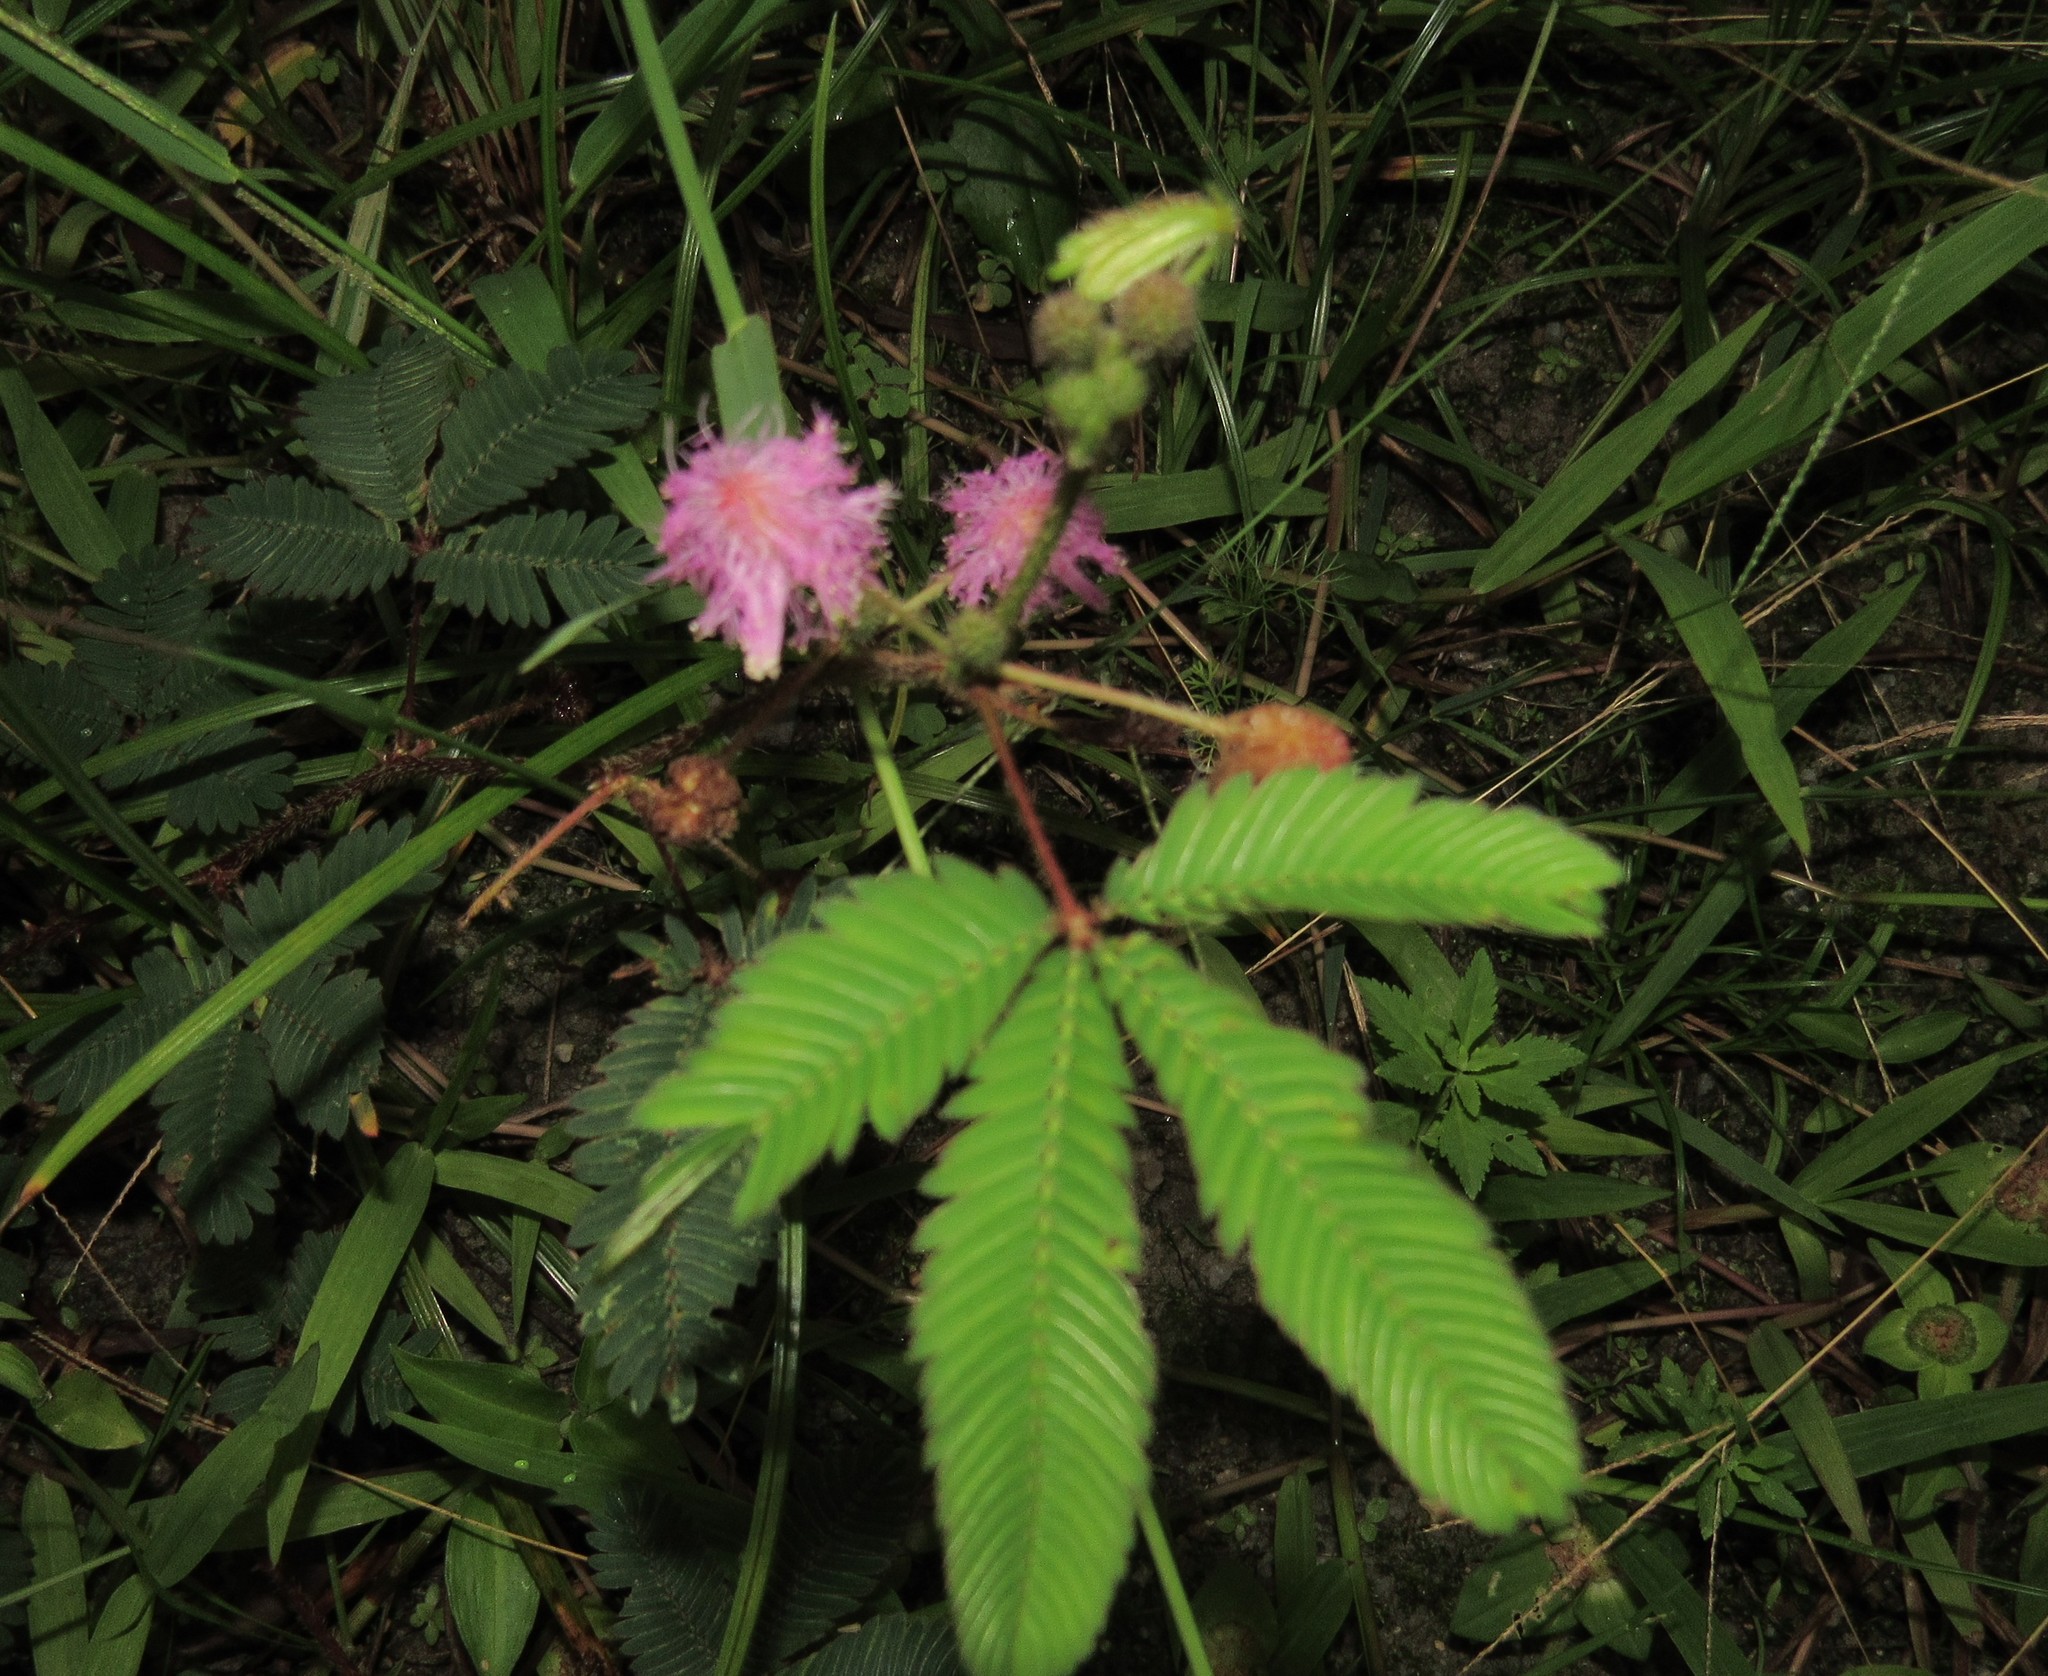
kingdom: Plantae
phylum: Tracheophyta
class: Magnoliopsida
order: Fabales
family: Fabaceae
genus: Mimosa
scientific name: Mimosa pudica
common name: Sensitive plant
